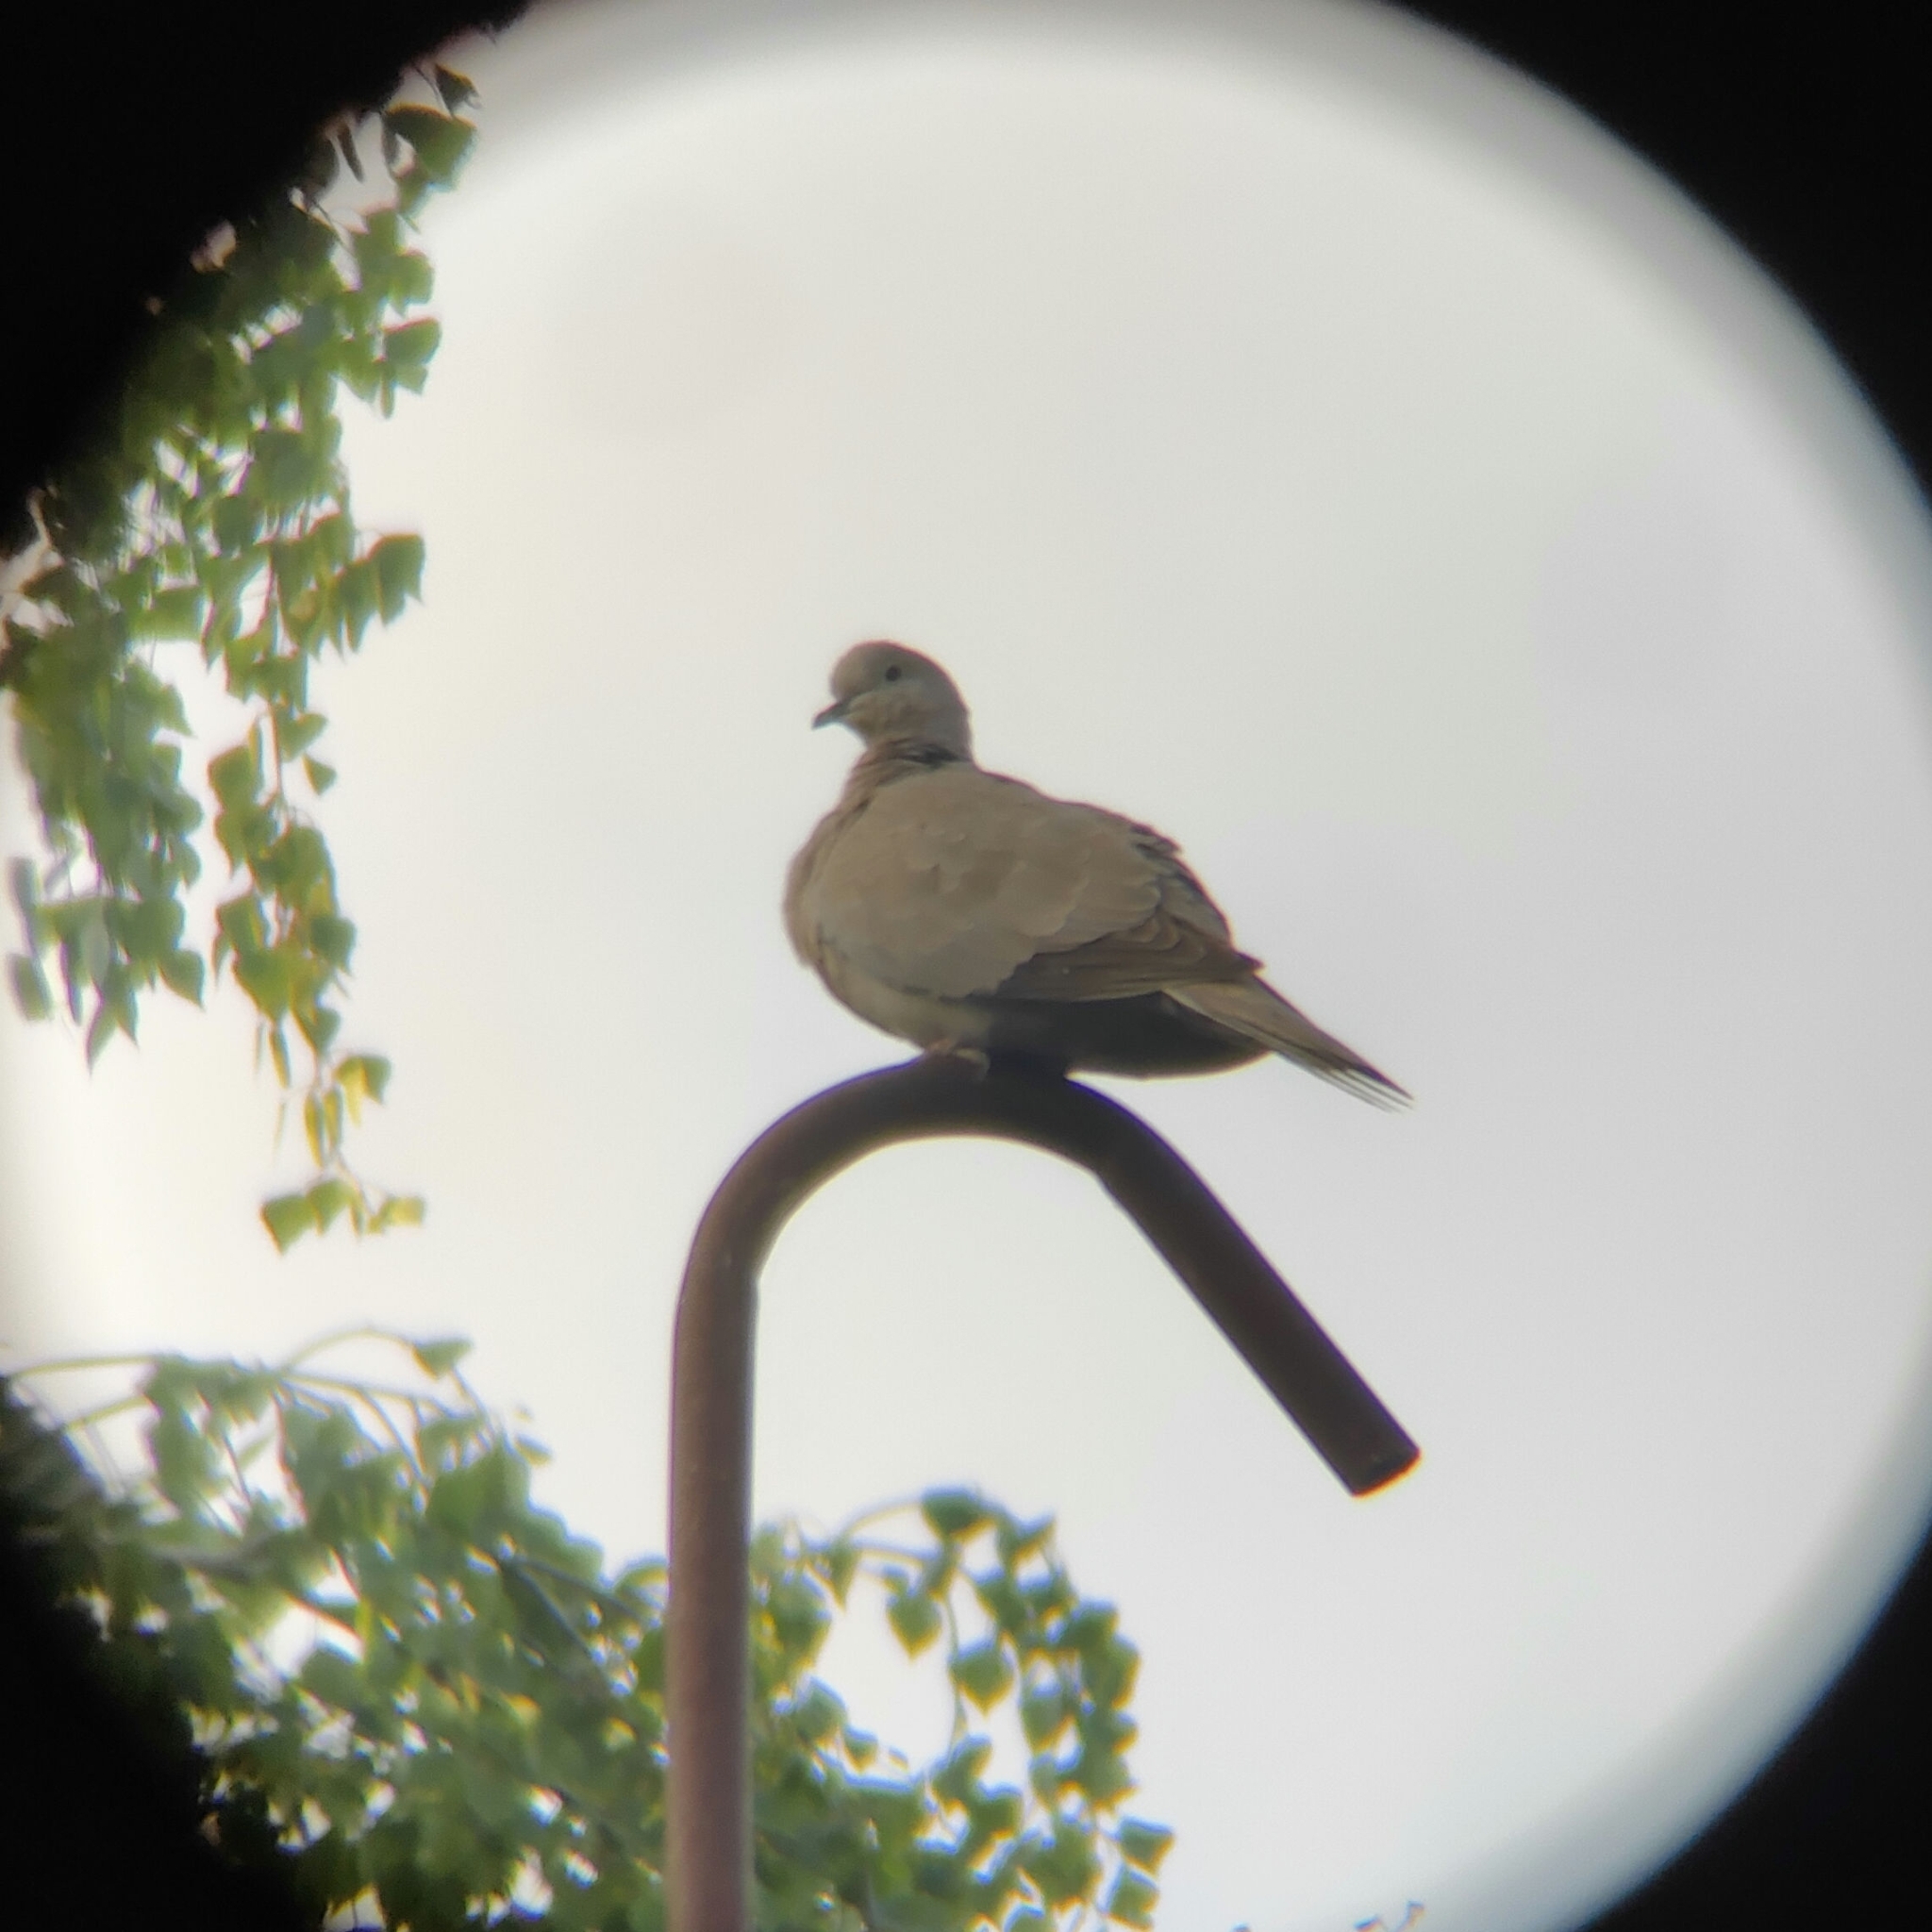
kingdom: Animalia
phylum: Chordata
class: Aves
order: Columbiformes
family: Columbidae
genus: Streptopelia
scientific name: Streptopelia decaocto
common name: Eurasian collared dove
